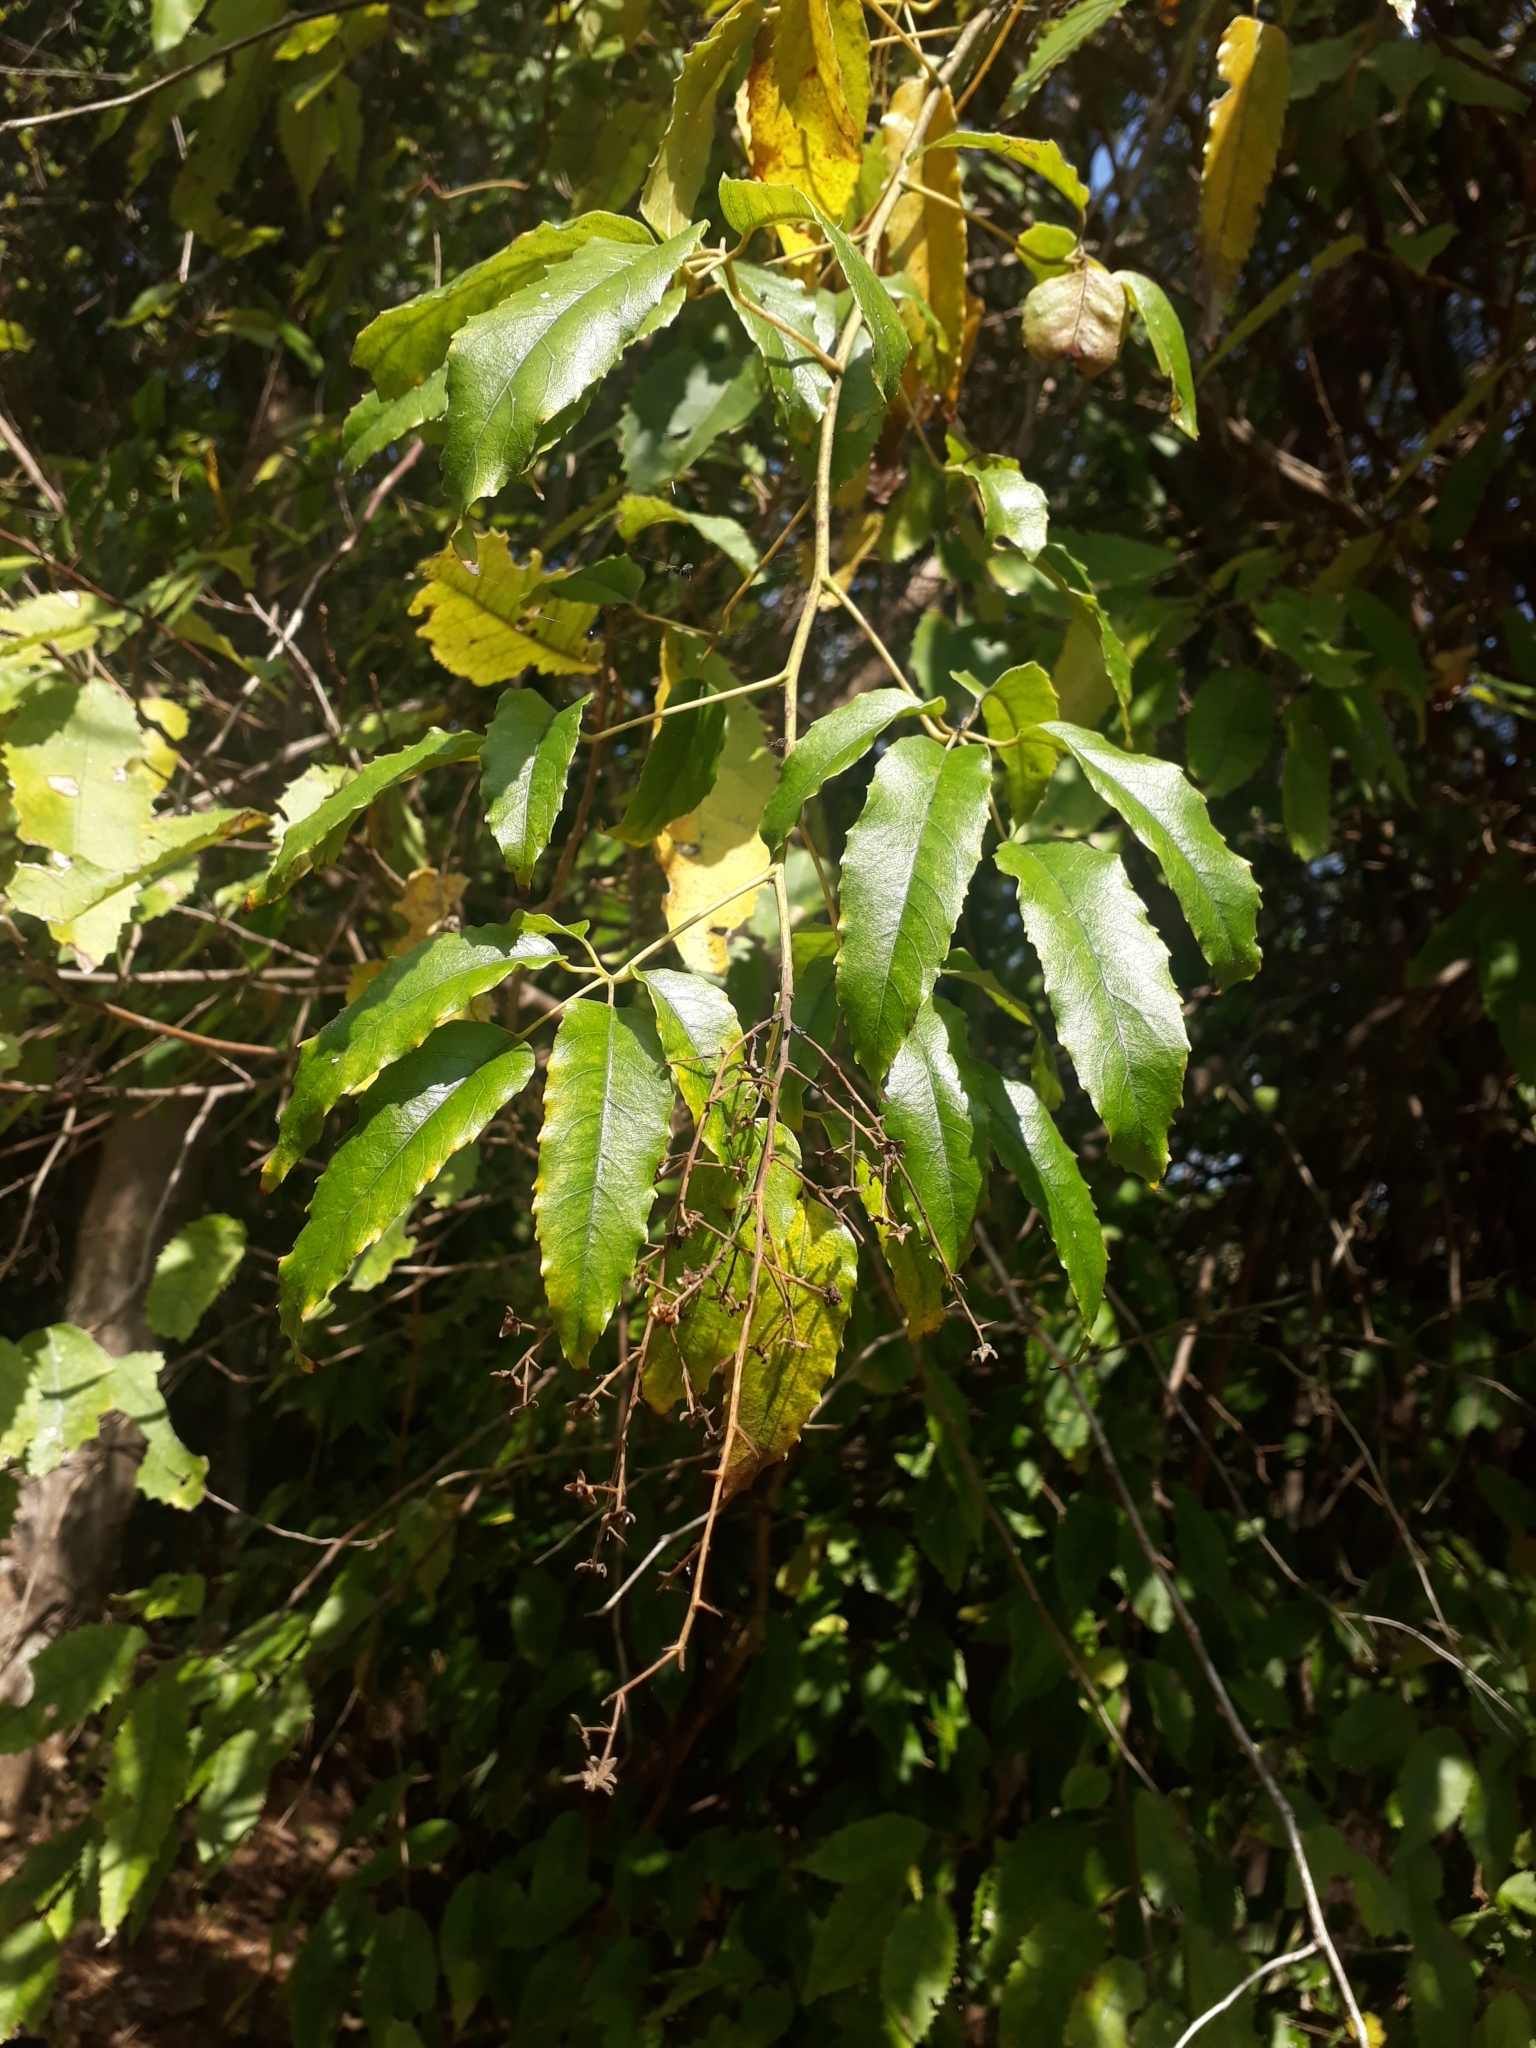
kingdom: Plantae
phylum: Tracheophyta
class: Magnoliopsida
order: Rosales
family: Rosaceae
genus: Rubus
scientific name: Rubus cissoides
